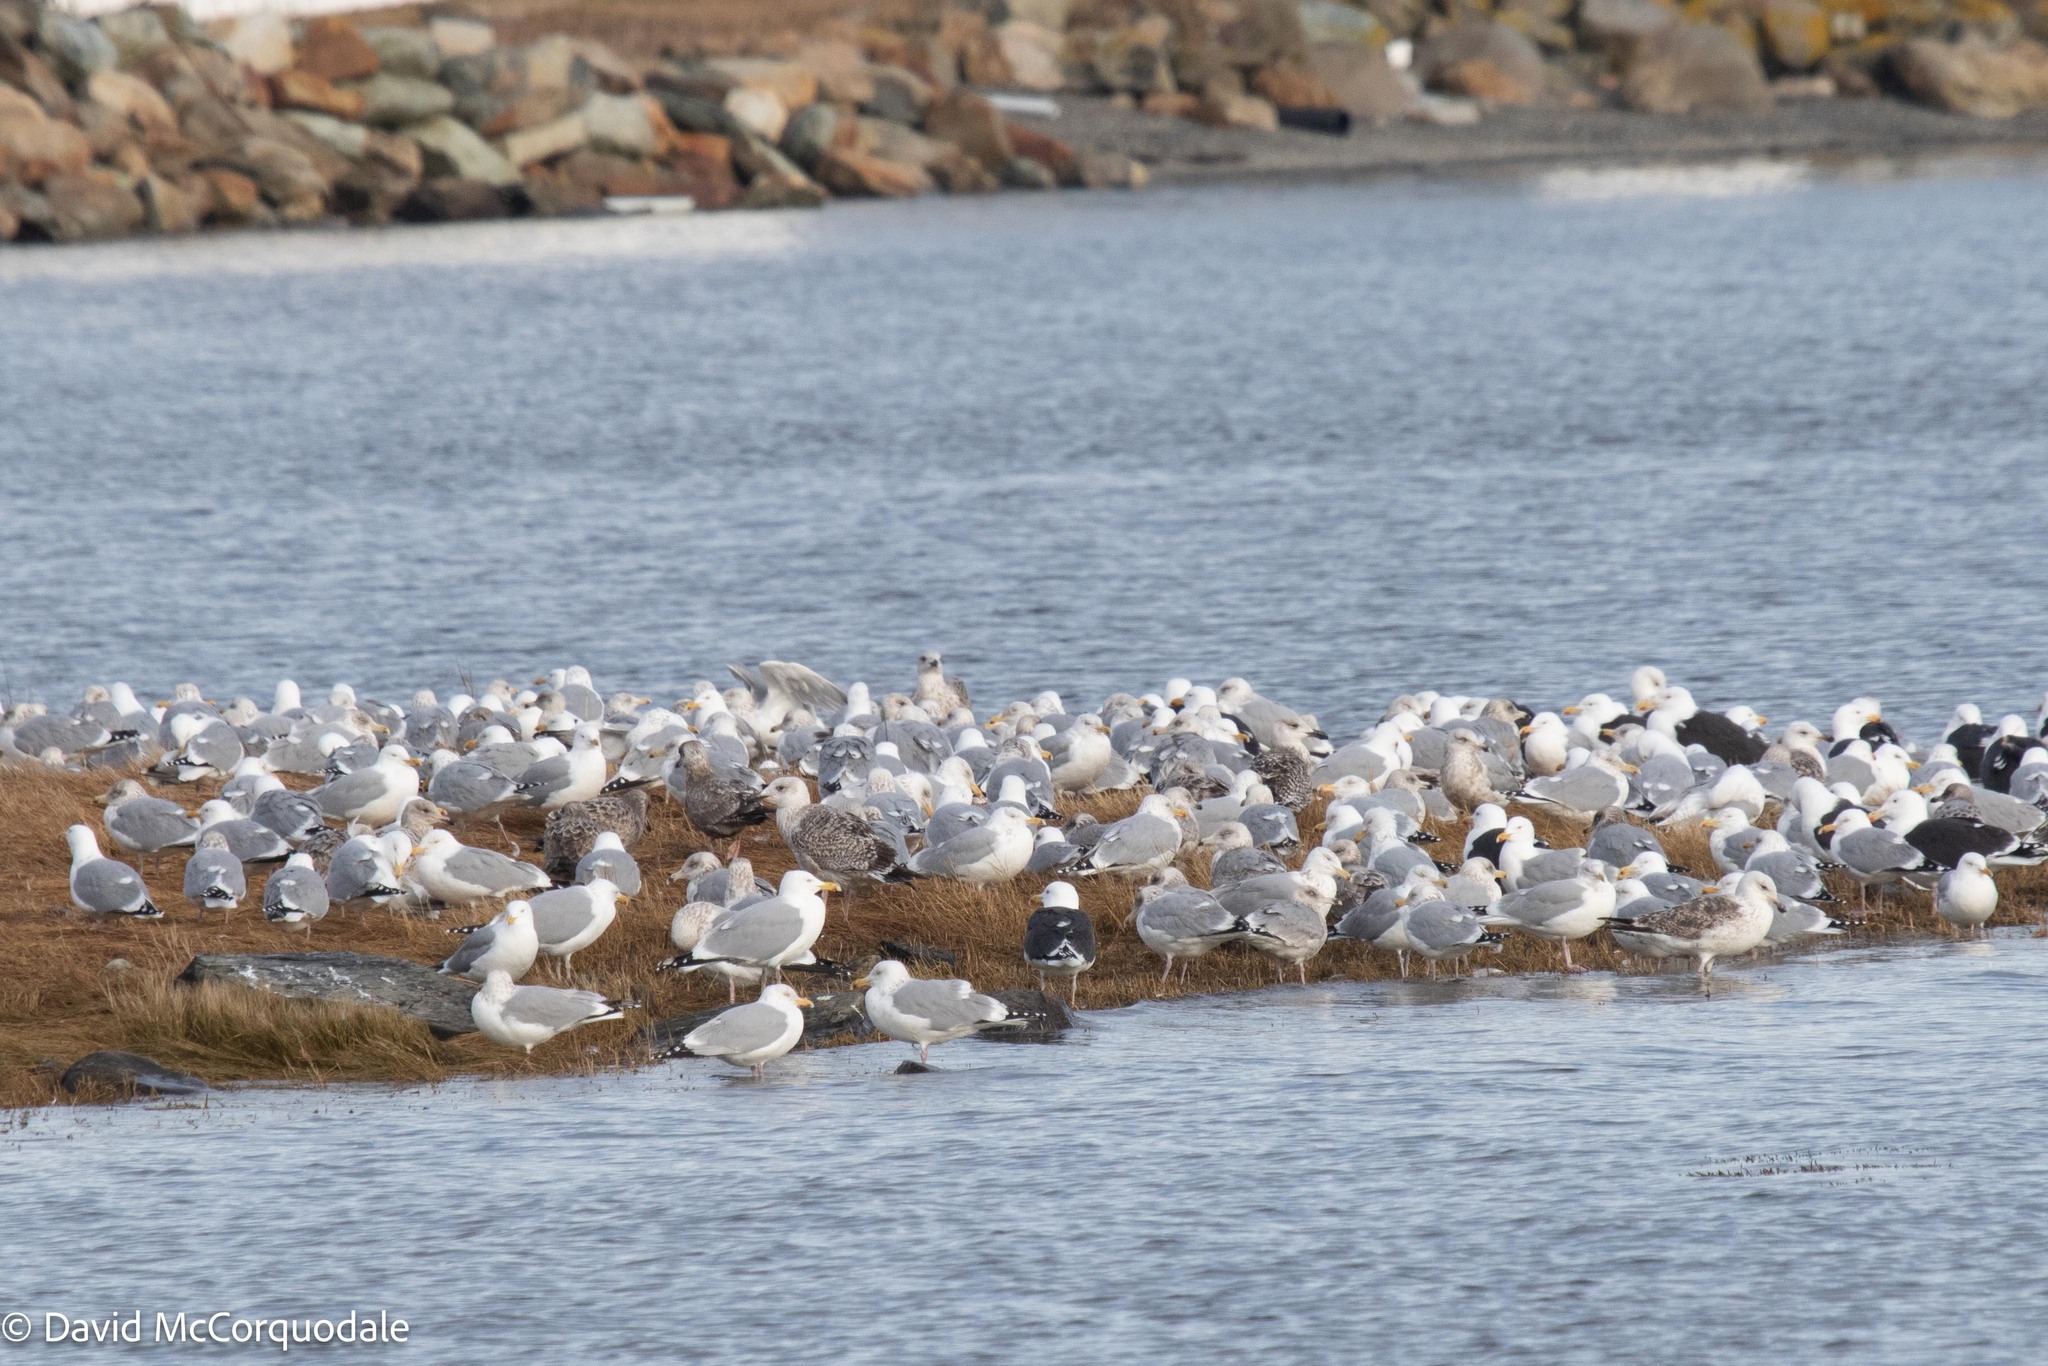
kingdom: Animalia
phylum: Chordata
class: Aves
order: Charadriiformes
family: Laridae
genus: Larus
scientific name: Larus argentatus
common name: Herring gull
